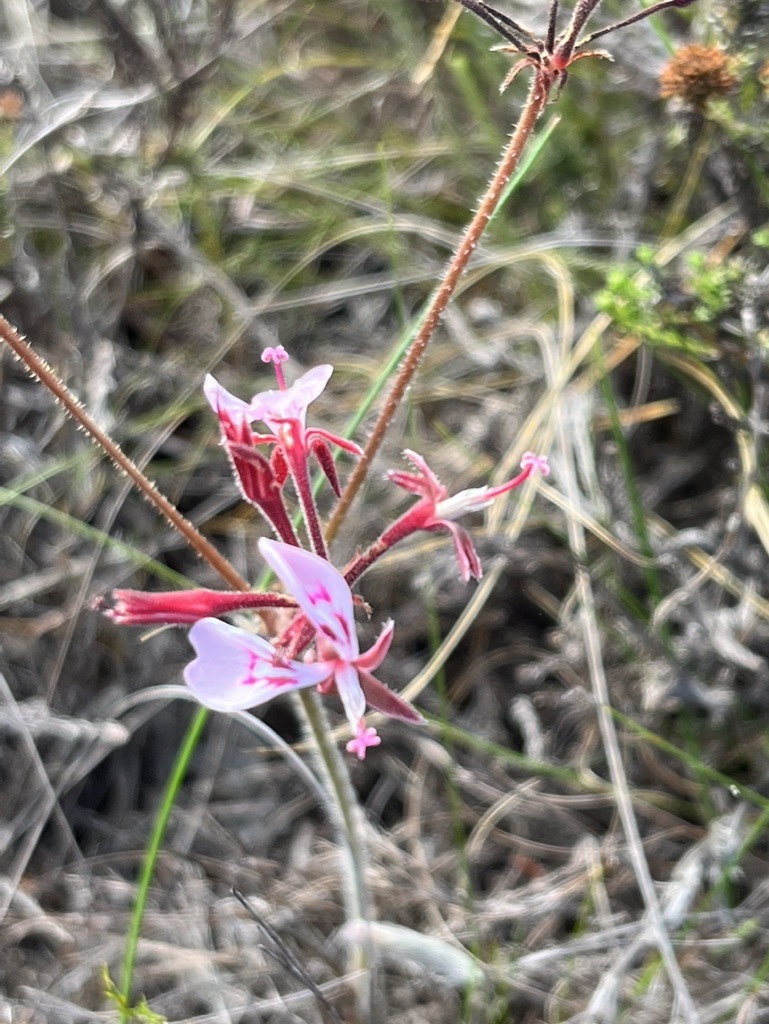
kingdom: Plantae
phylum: Tracheophyta
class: Magnoliopsida
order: Geraniales
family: Geraniaceae
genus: Pelargonium
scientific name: Pelargonium dipetalum
